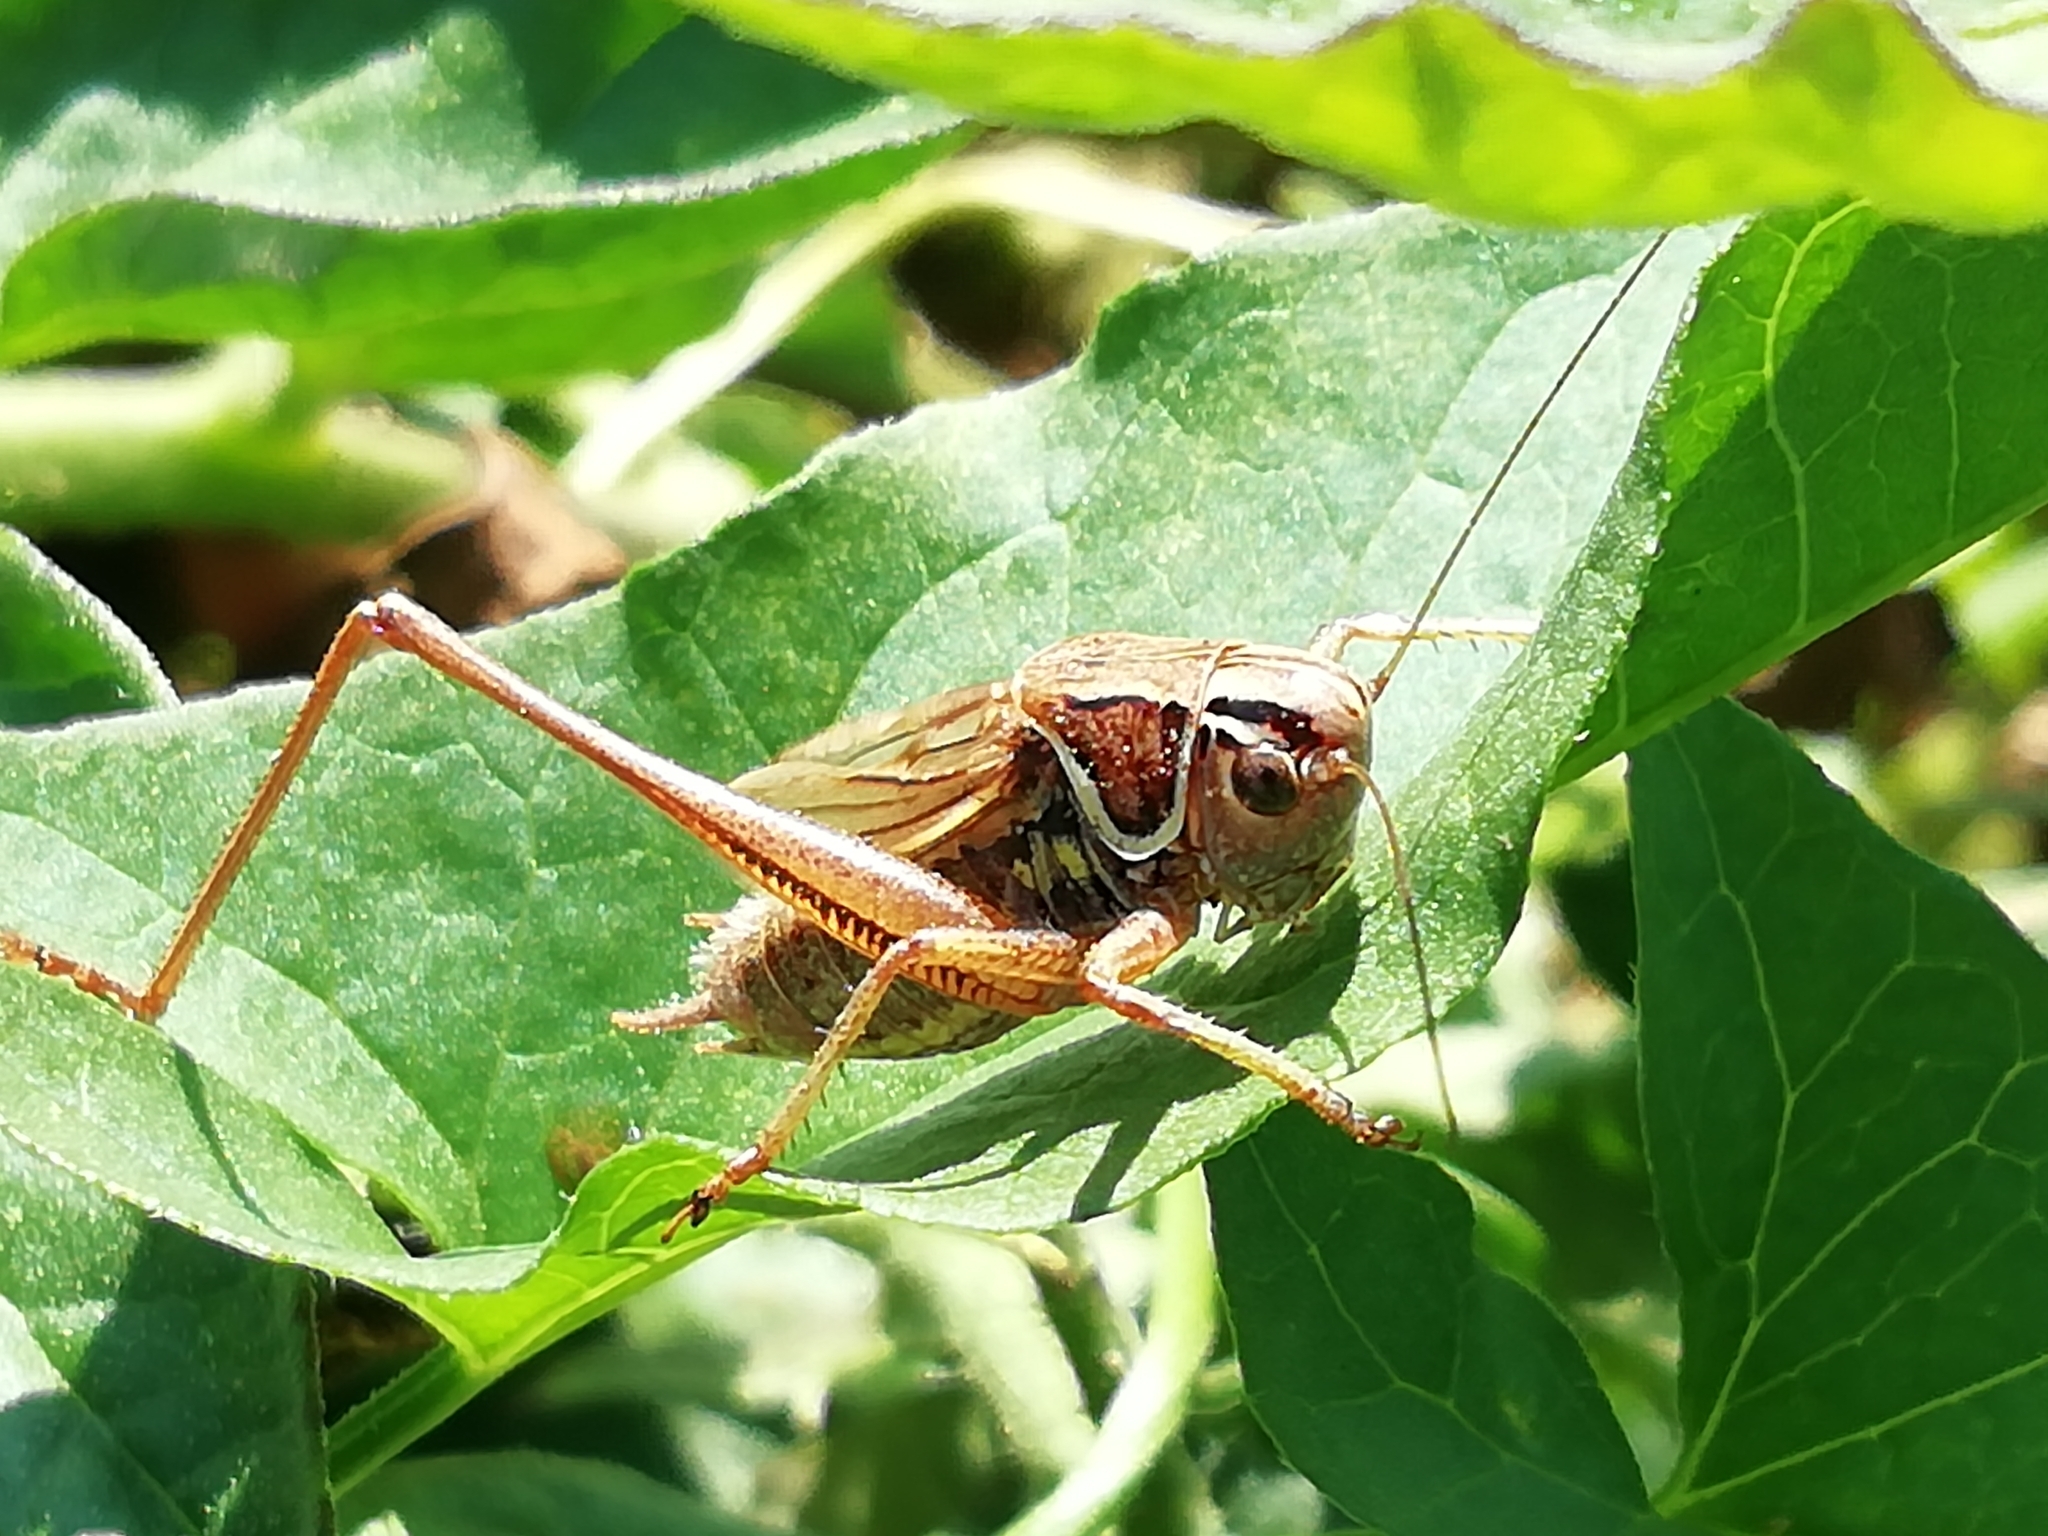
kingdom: Animalia
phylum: Arthropoda
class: Insecta
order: Orthoptera
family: Tettigoniidae
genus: Roeseliana
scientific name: Roeseliana roeselii
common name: Roesel's bush cricket
